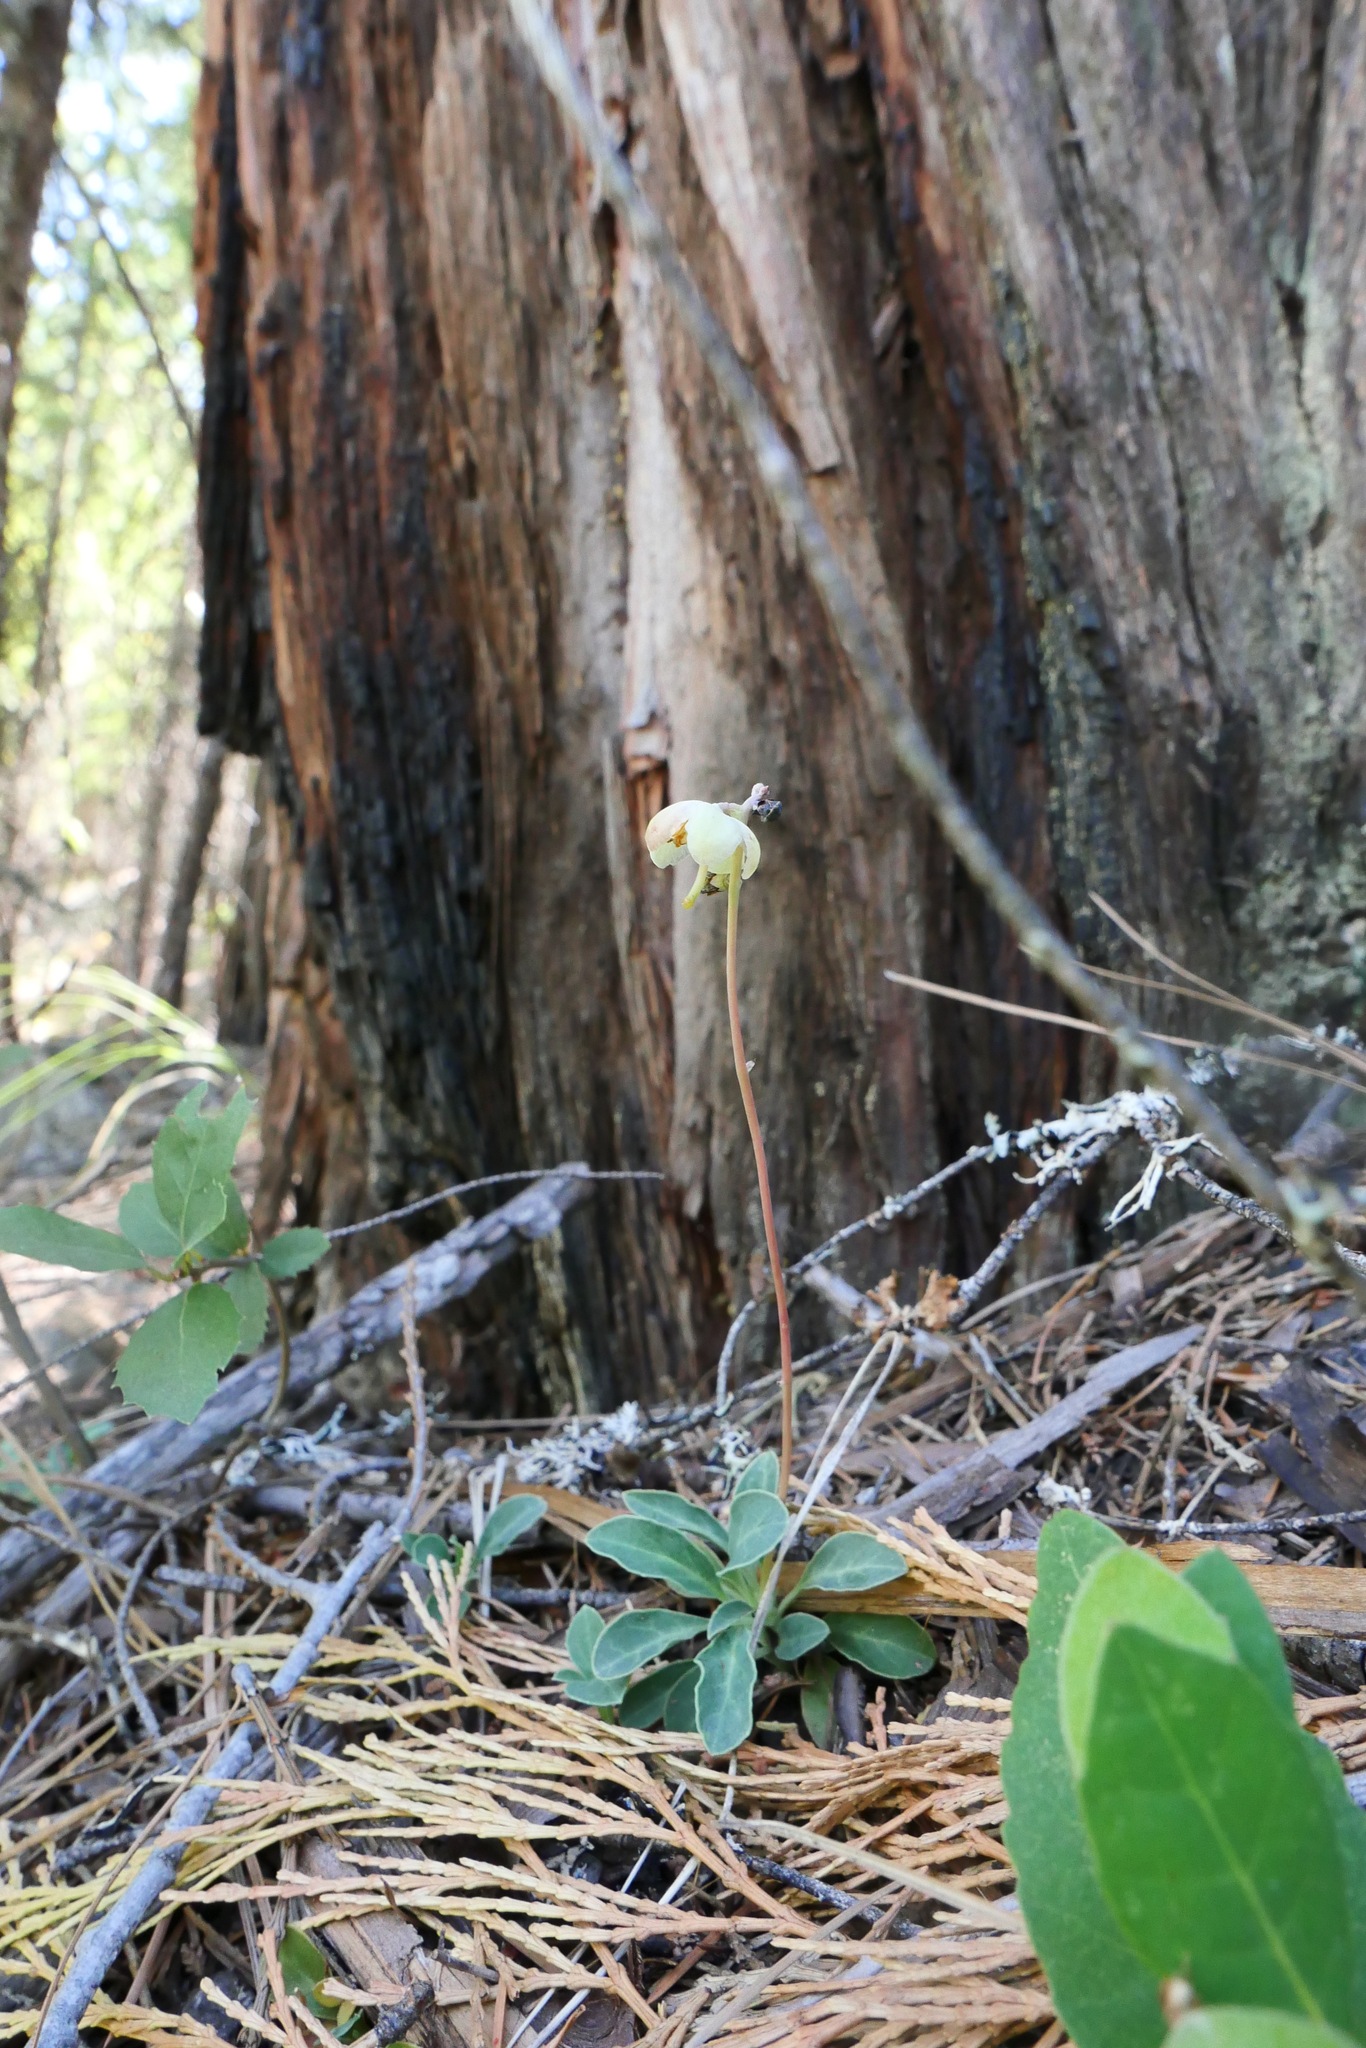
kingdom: Plantae
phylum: Tracheophyta
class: Magnoliopsida
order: Ericales
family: Ericaceae
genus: Pyrola
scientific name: Pyrola dentata
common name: Tooth-leaved wintergreen
